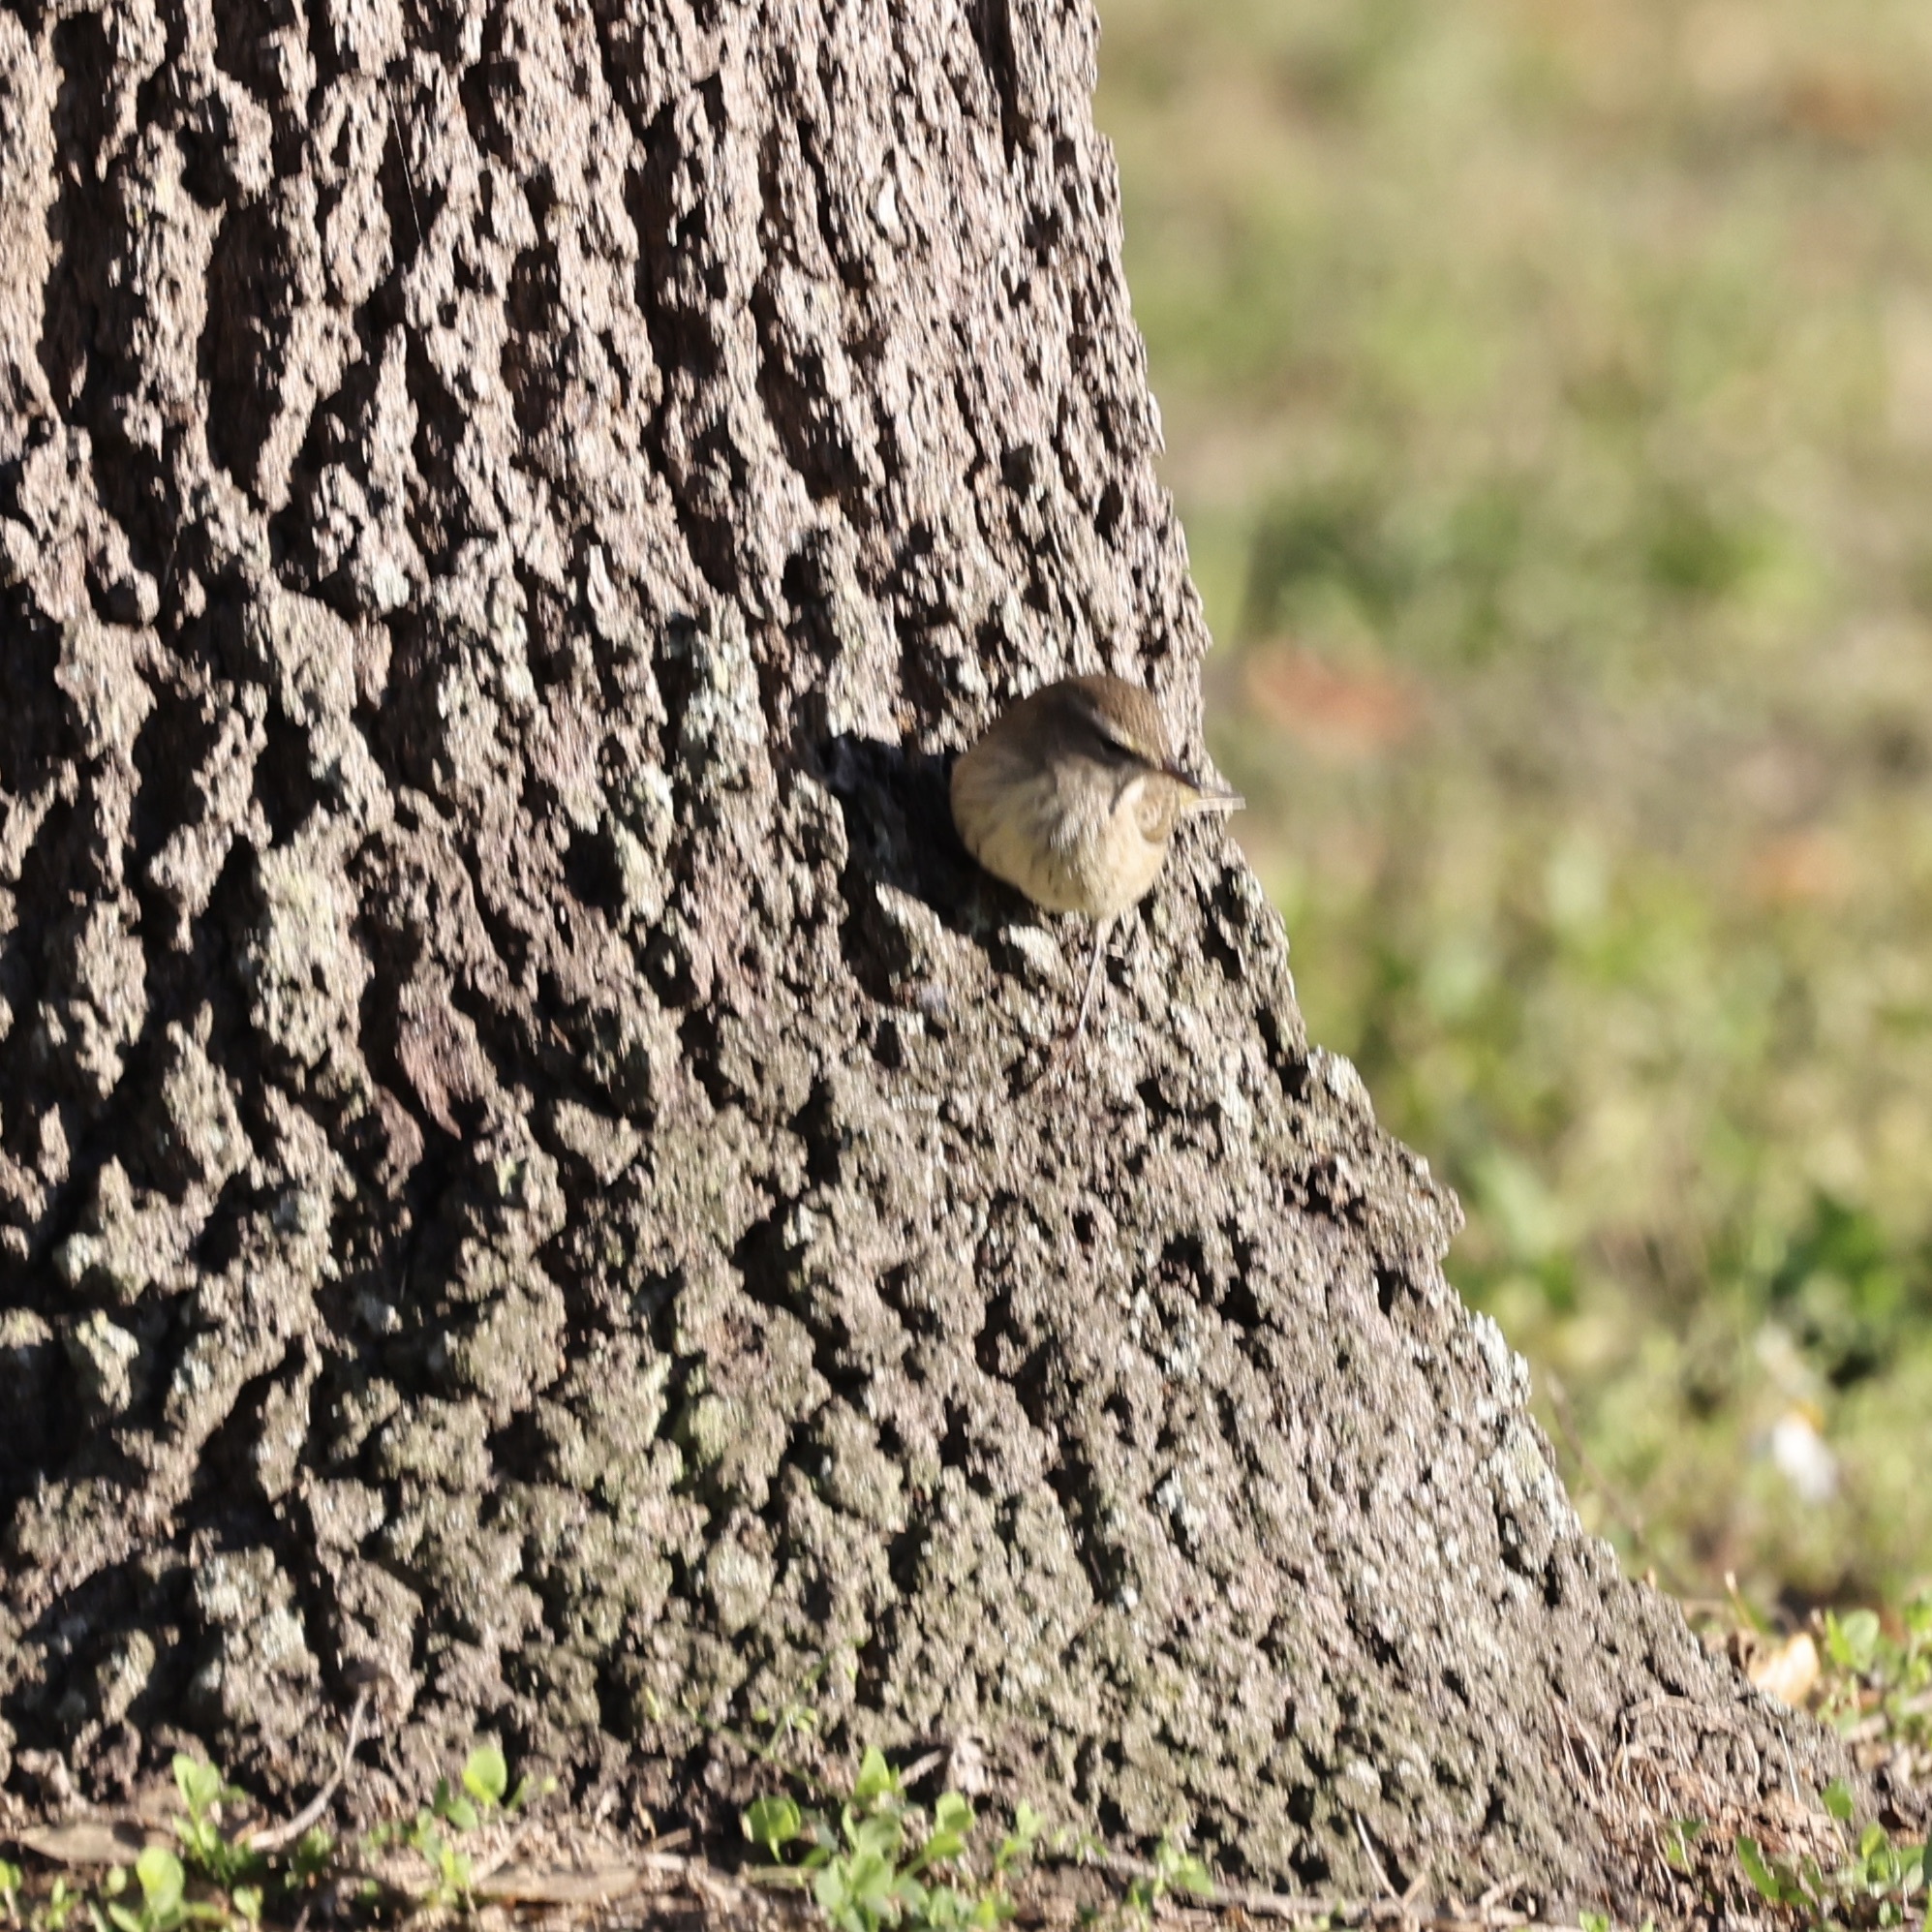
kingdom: Animalia
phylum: Chordata
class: Aves
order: Passeriformes
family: Parulidae
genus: Setophaga
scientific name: Setophaga palmarum
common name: Palm warbler
